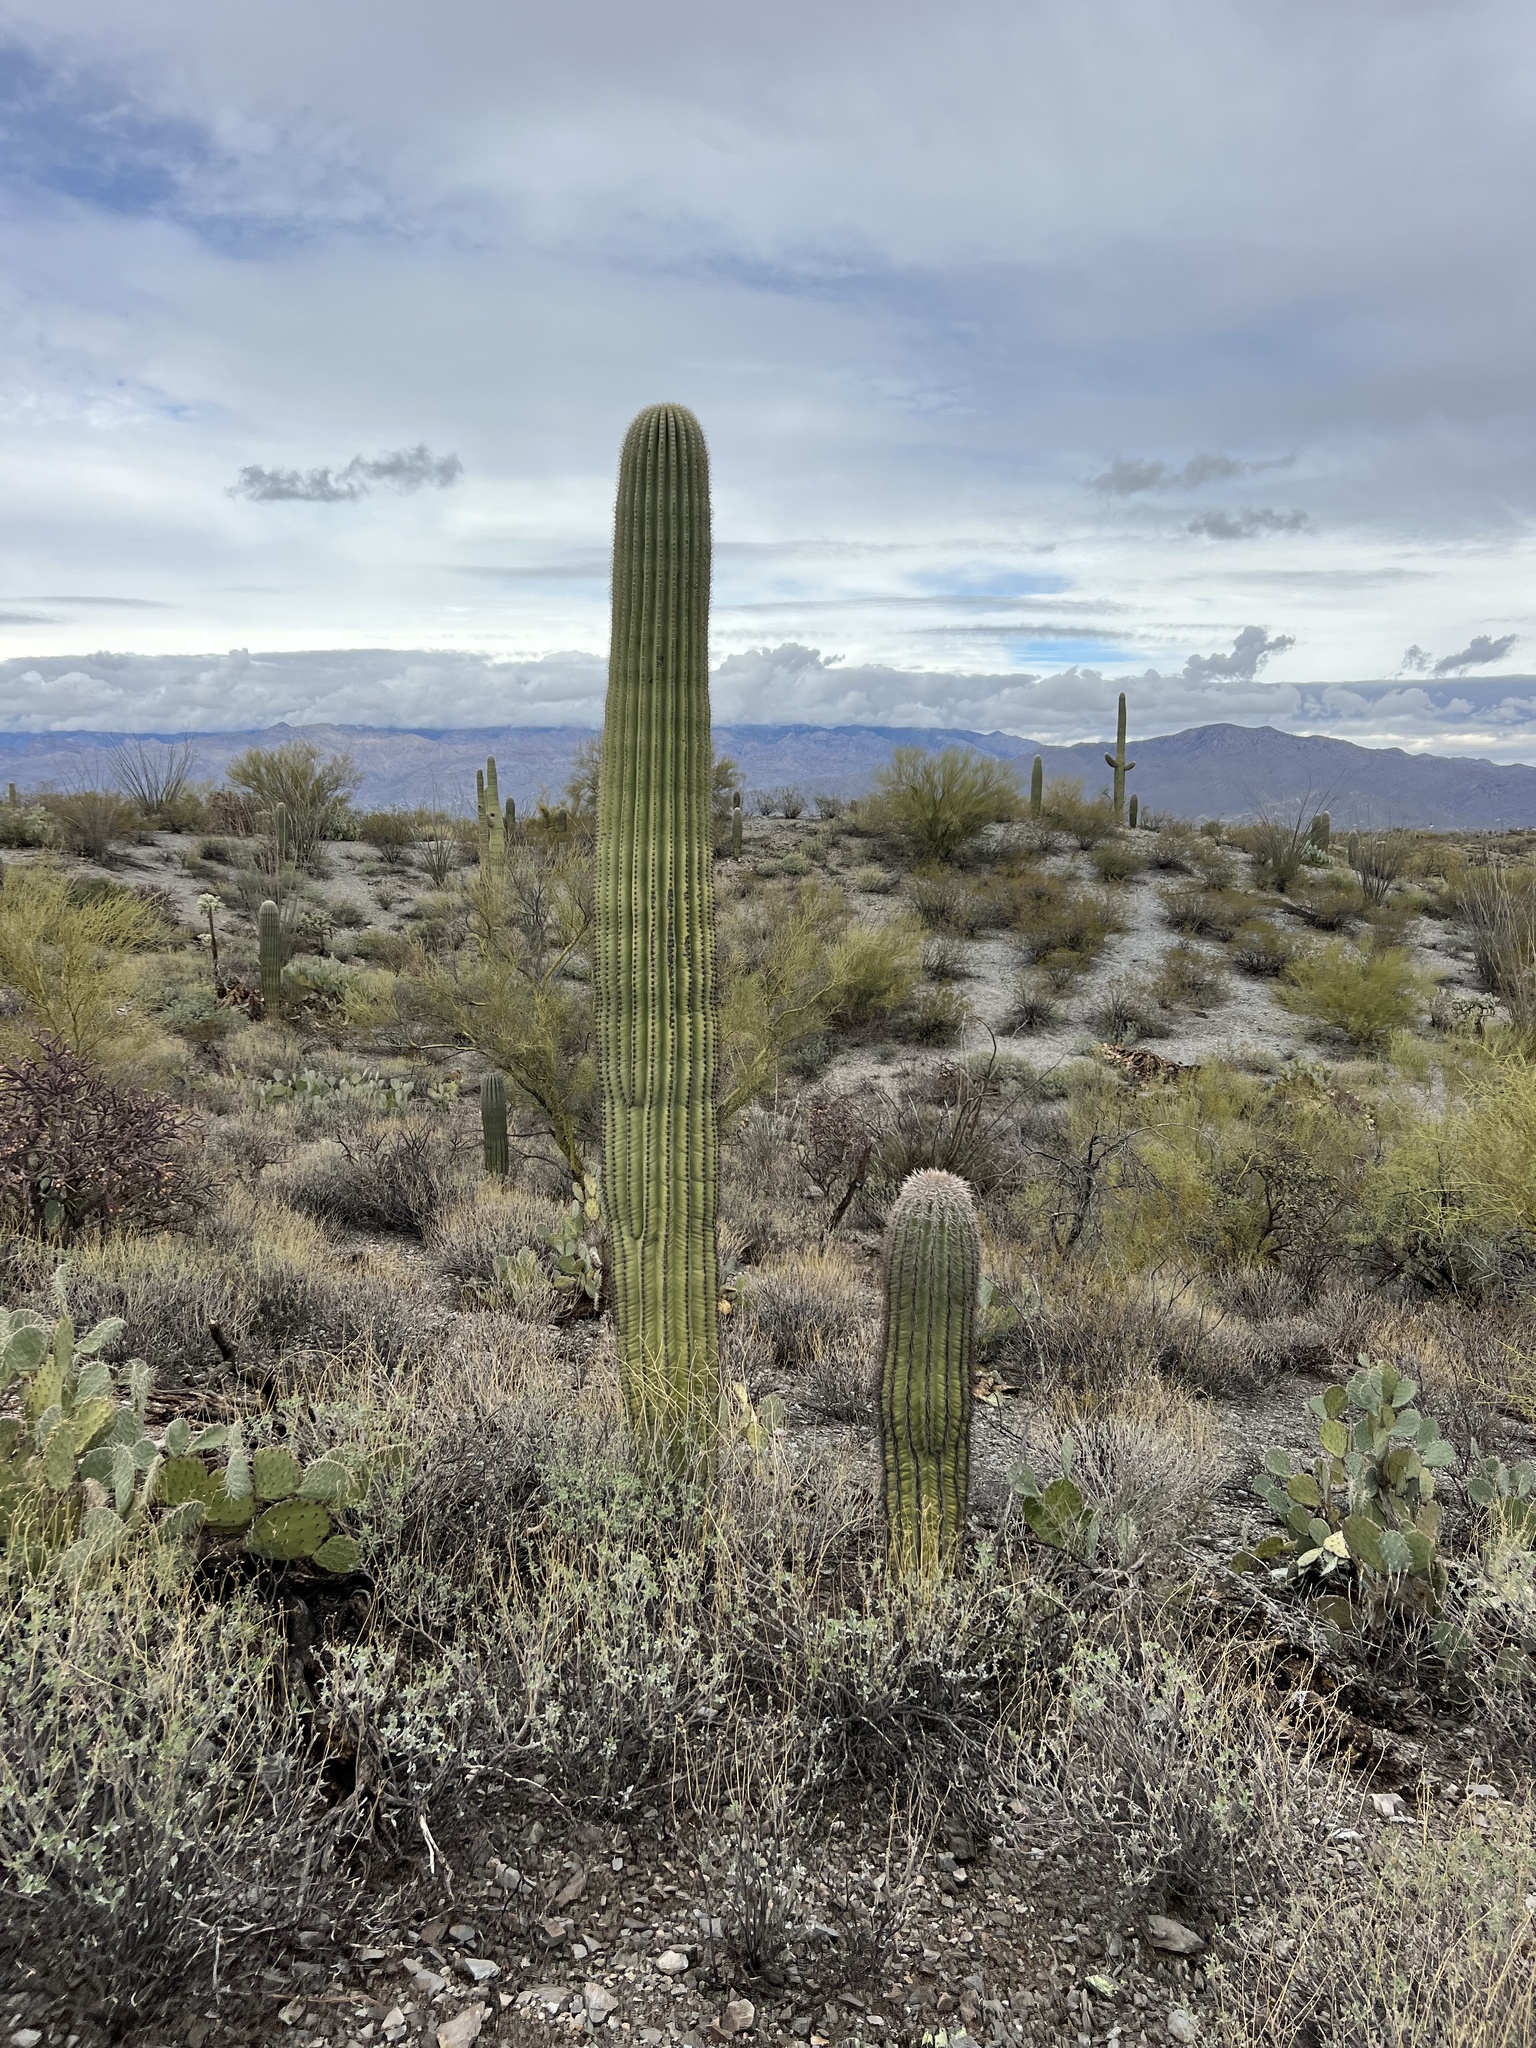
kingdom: Plantae
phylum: Tracheophyta
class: Magnoliopsida
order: Caryophyllales
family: Cactaceae
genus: Carnegiea
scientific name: Carnegiea gigantea
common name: Saguaro
